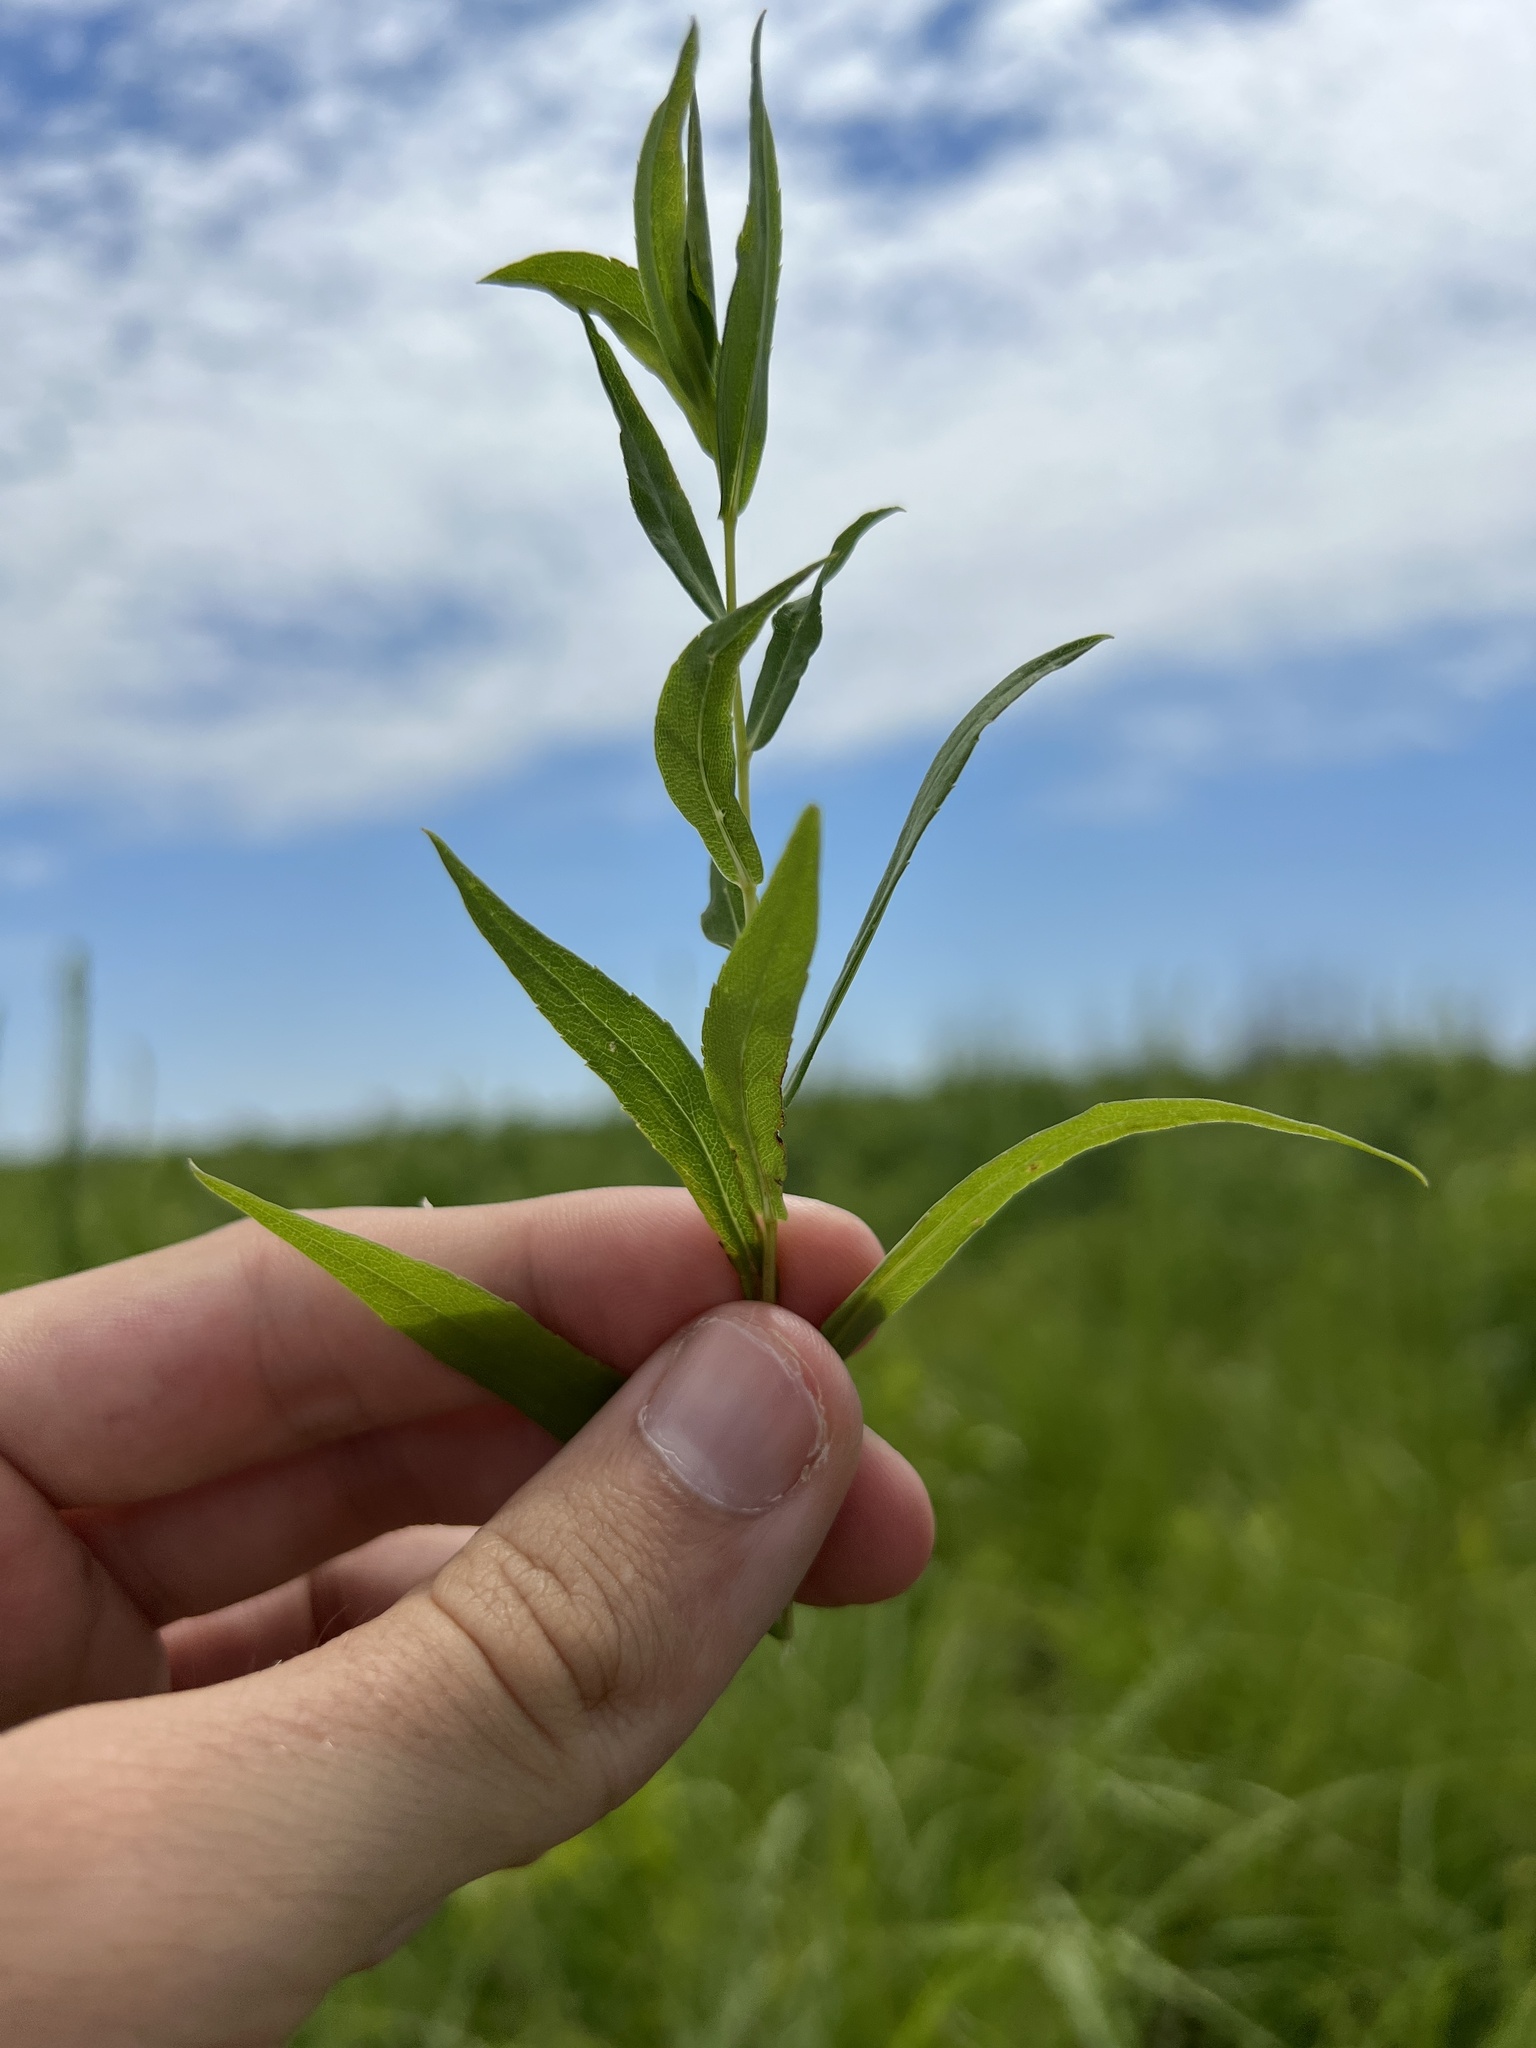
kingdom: Plantae
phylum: Tracheophyta
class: Magnoliopsida
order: Asterales
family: Asteraceae
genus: Symphyotrichum
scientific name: Symphyotrichum praealtum
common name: Willow aster
